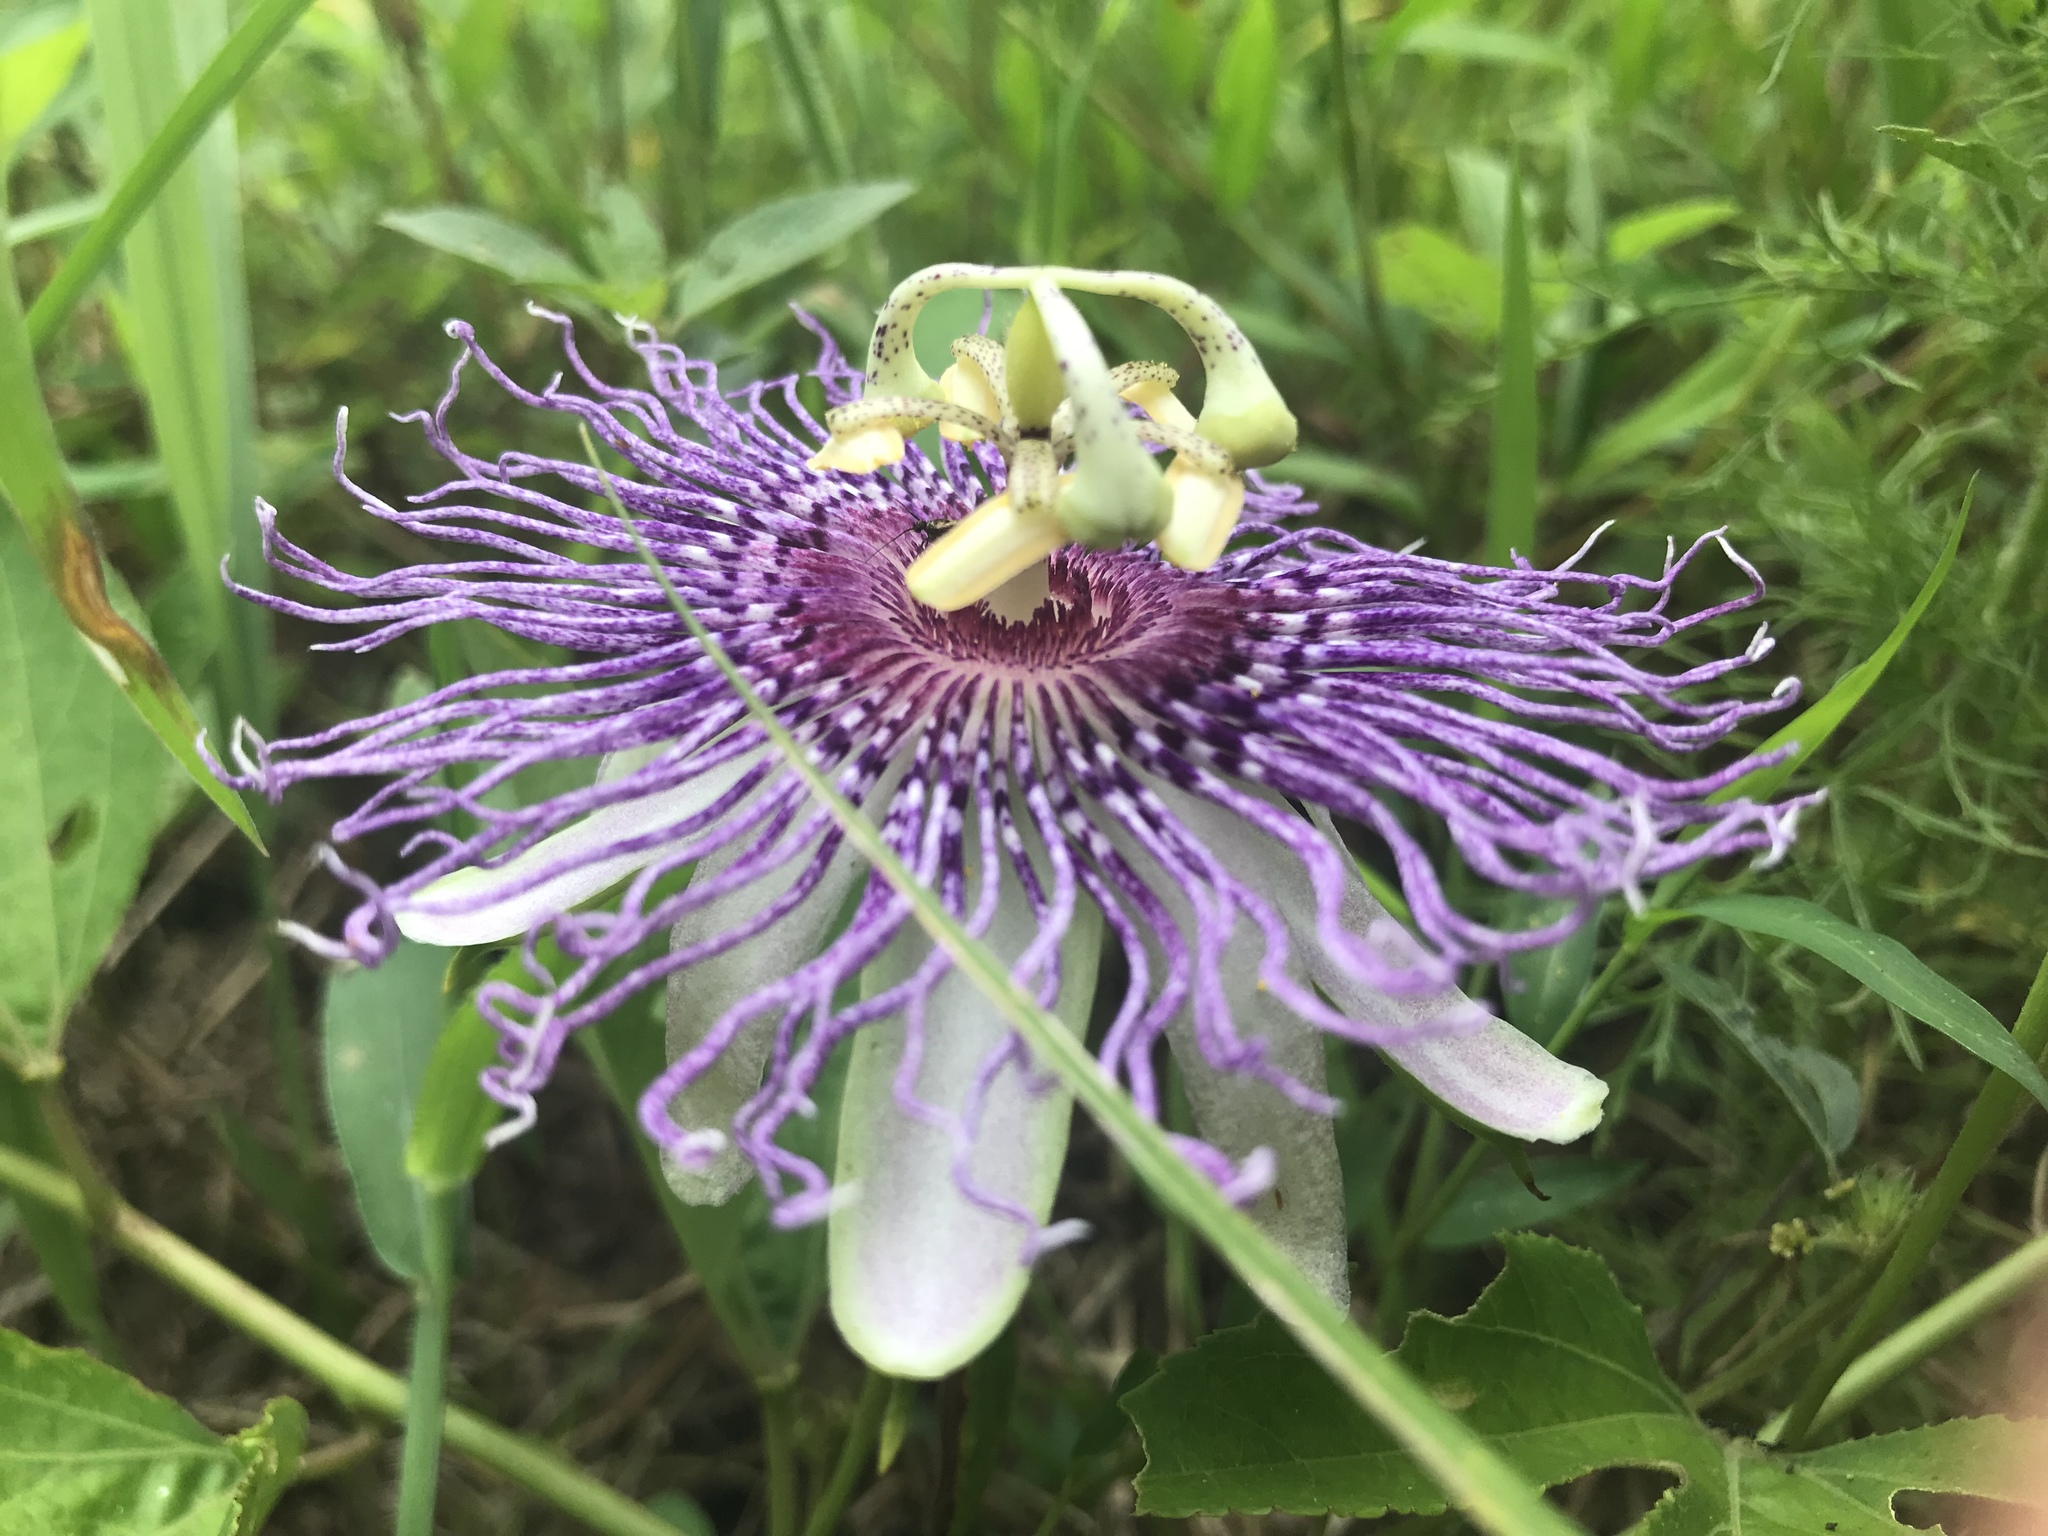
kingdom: Plantae
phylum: Tracheophyta
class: Magnoliopsida
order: Malpighiales
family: Passifloraceae
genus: Passiflora
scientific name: Passiflora incarnata
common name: Apricot-vine
